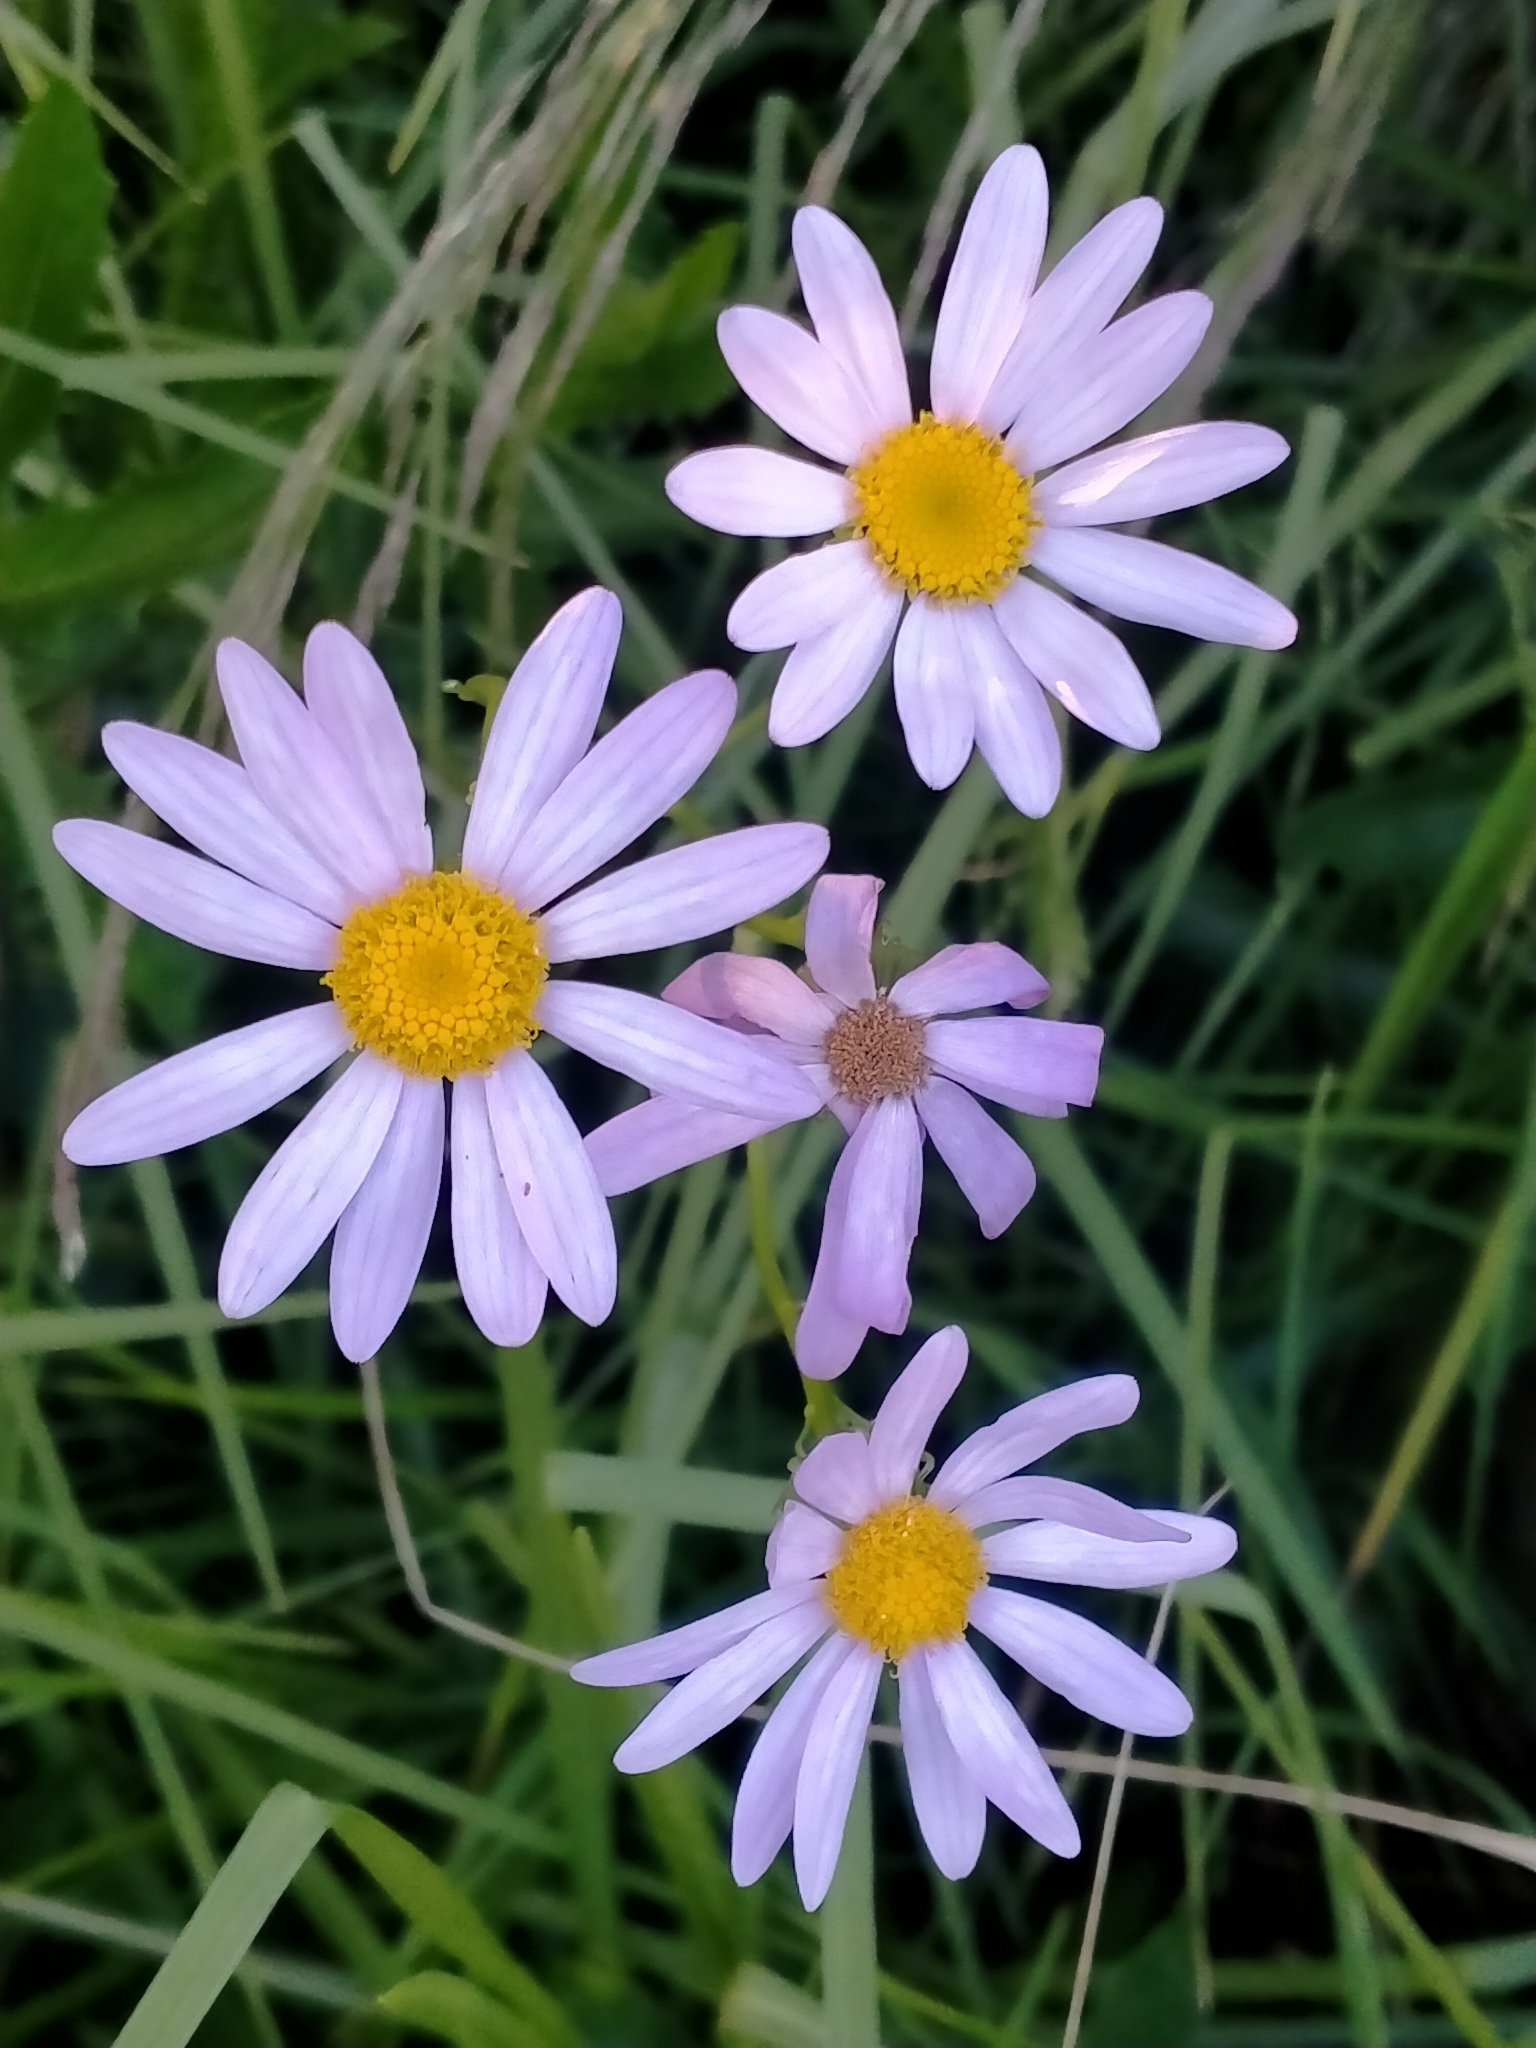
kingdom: Plantae
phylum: Tracheophyta
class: Magnoliopsida
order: Asterales
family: Asteraceae
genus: Senecio
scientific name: Senecio glastifolius
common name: Woad-leaved ragwort
